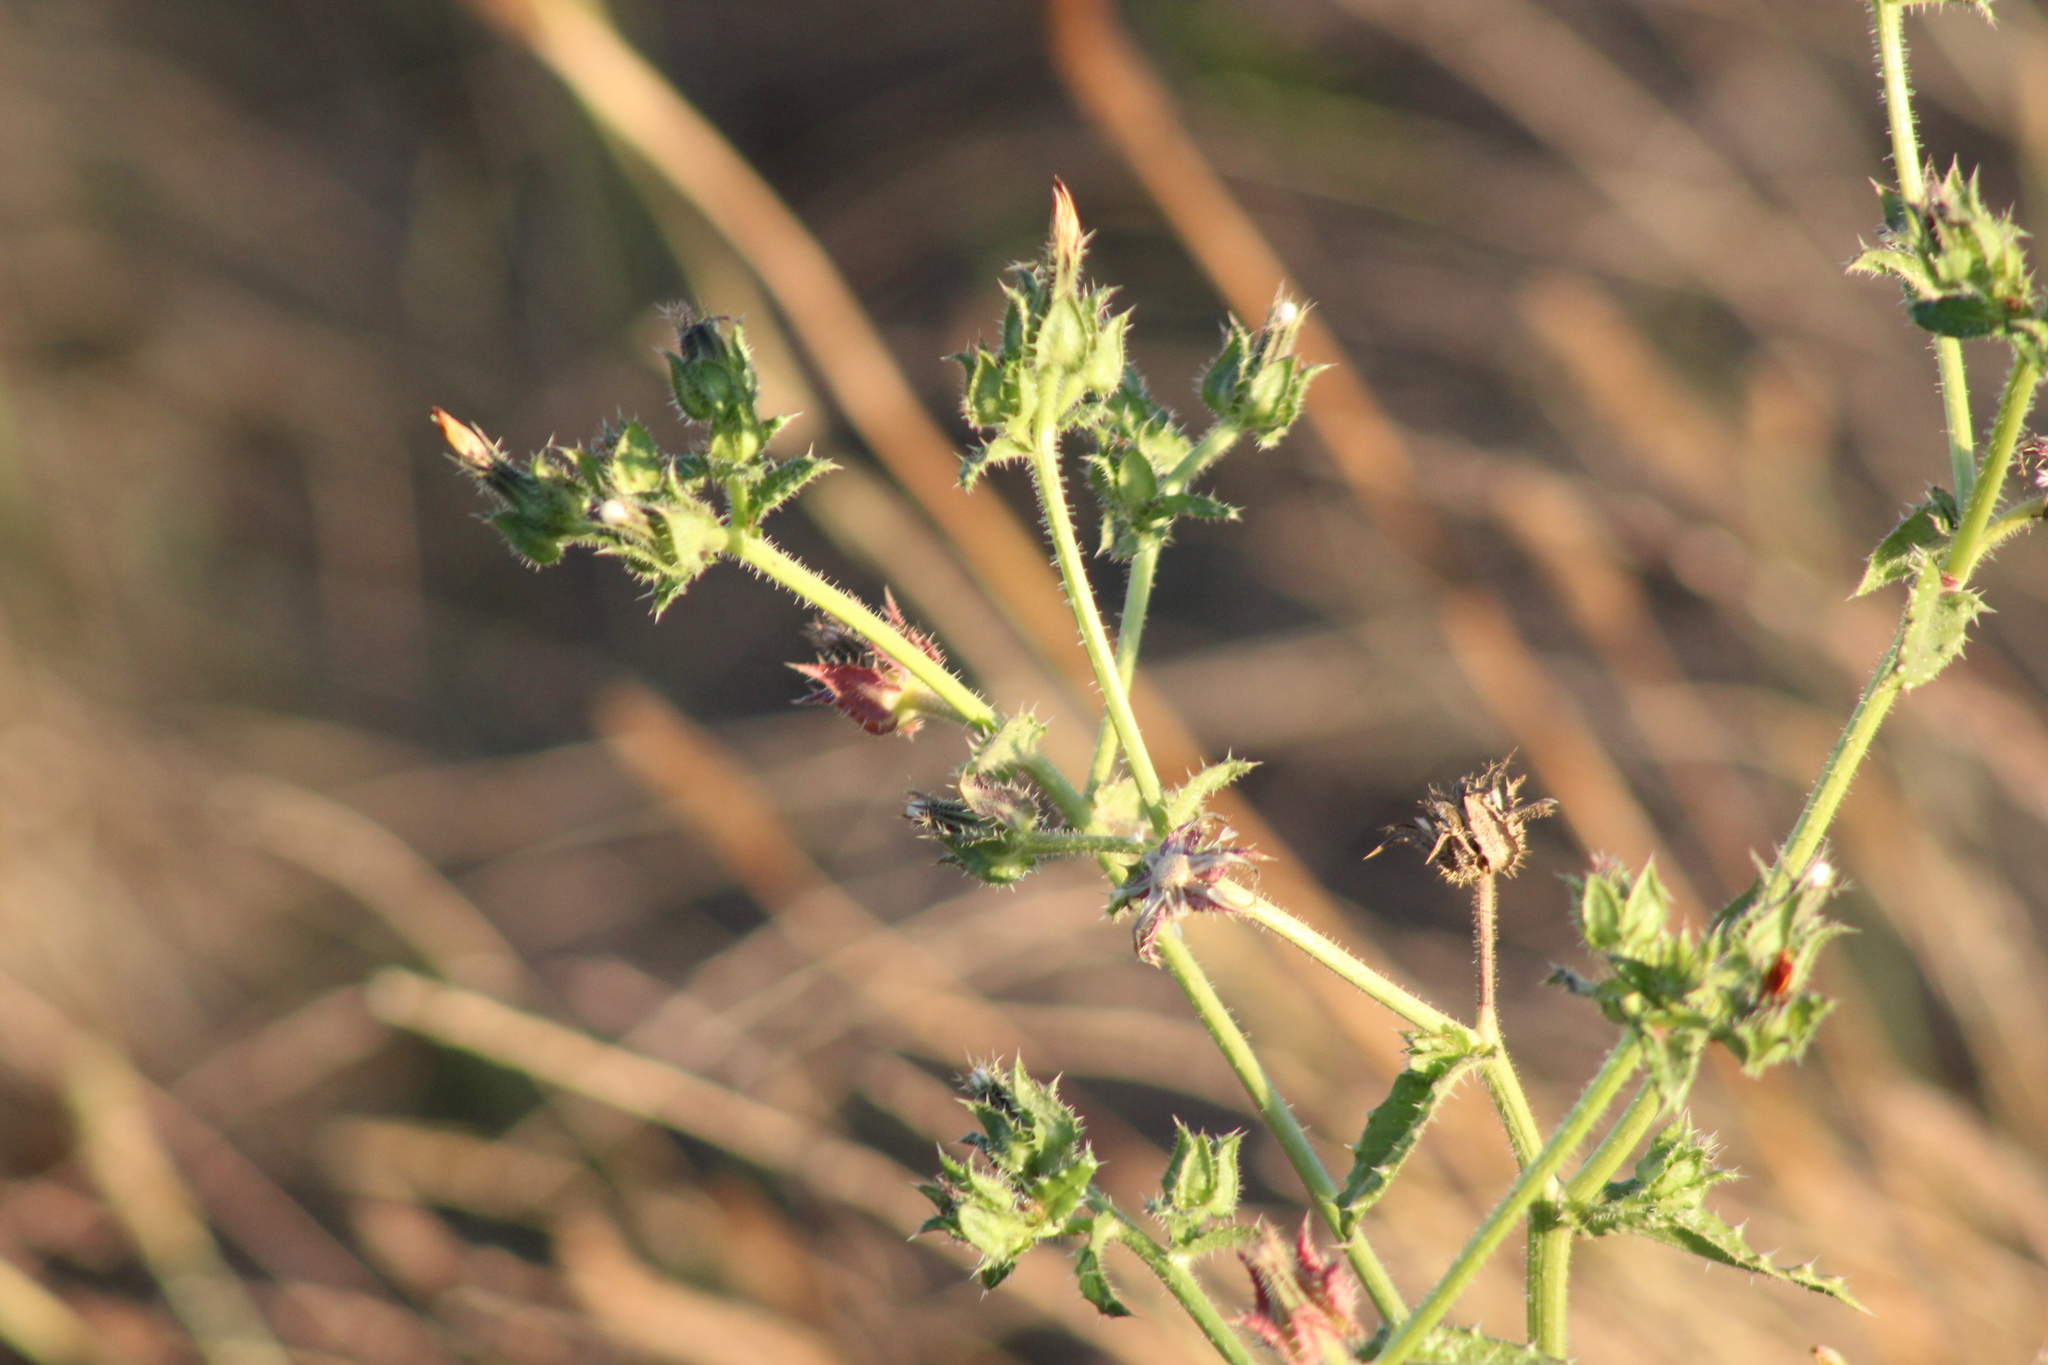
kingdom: Plantae
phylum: Tracheophyta
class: Magnoliopsida
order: Asterales
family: Asteraceae
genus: Helminthotheca
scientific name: Helminthotheca echioides
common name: Ox-tongue
